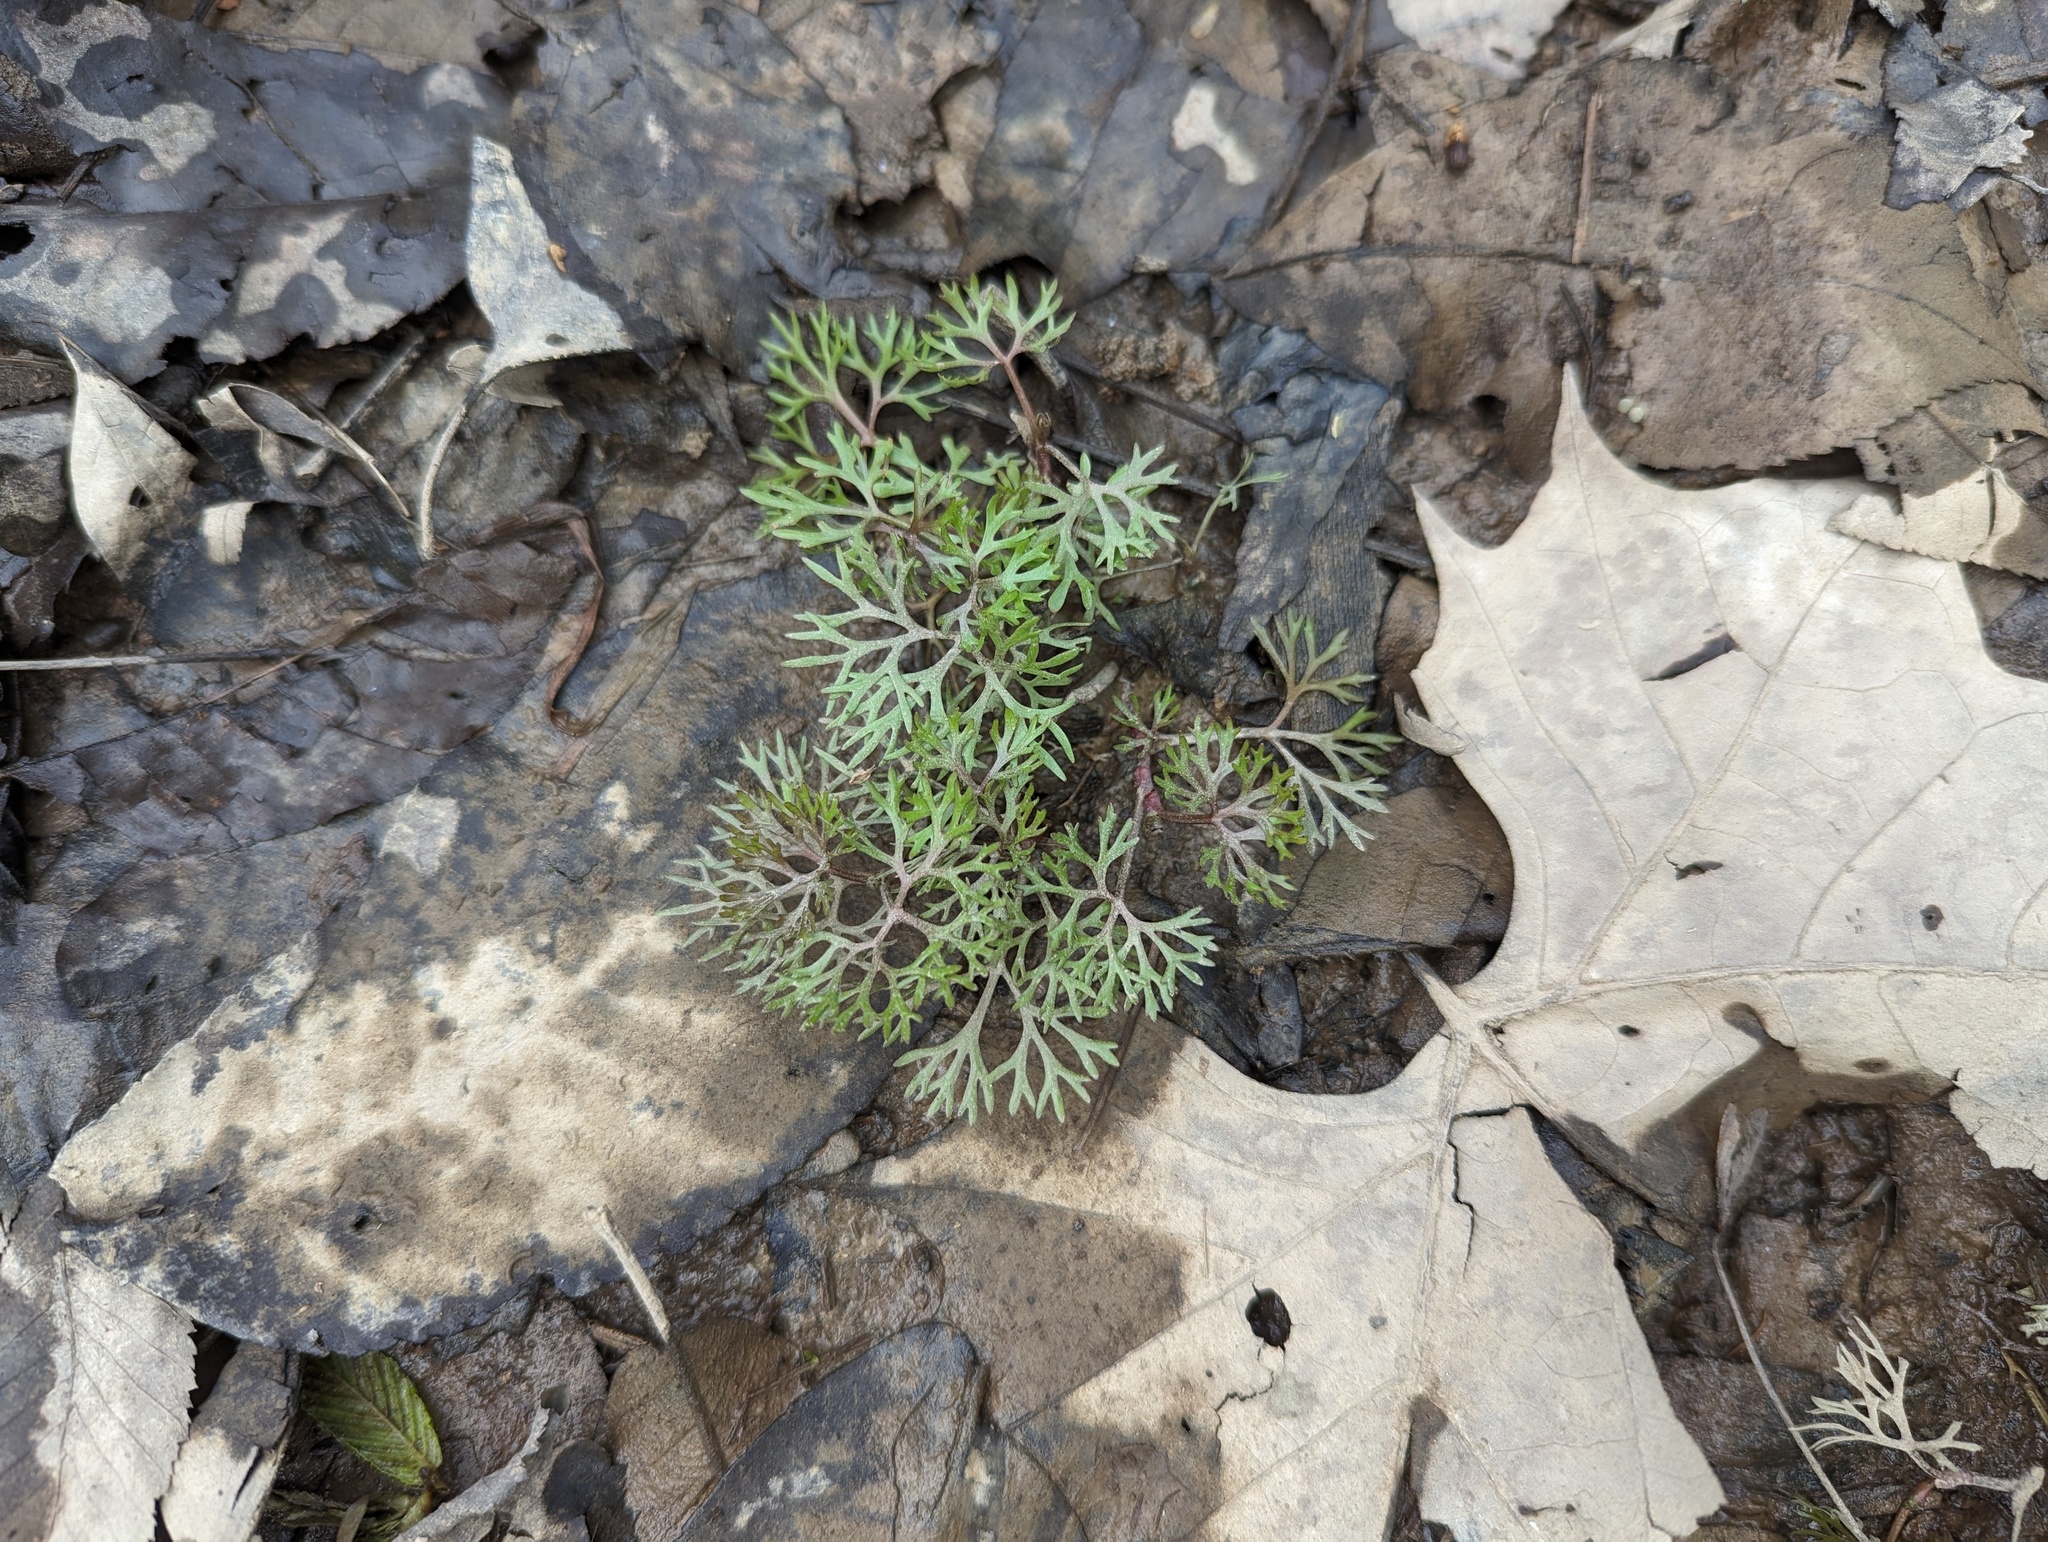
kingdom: Plantae
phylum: Tracheophyta
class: Magnoliopsida
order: Ranunculales
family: Ranunculaceae
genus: Ranunculus
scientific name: Ranunculus flabellaris
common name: Yellow water-crowfoot
